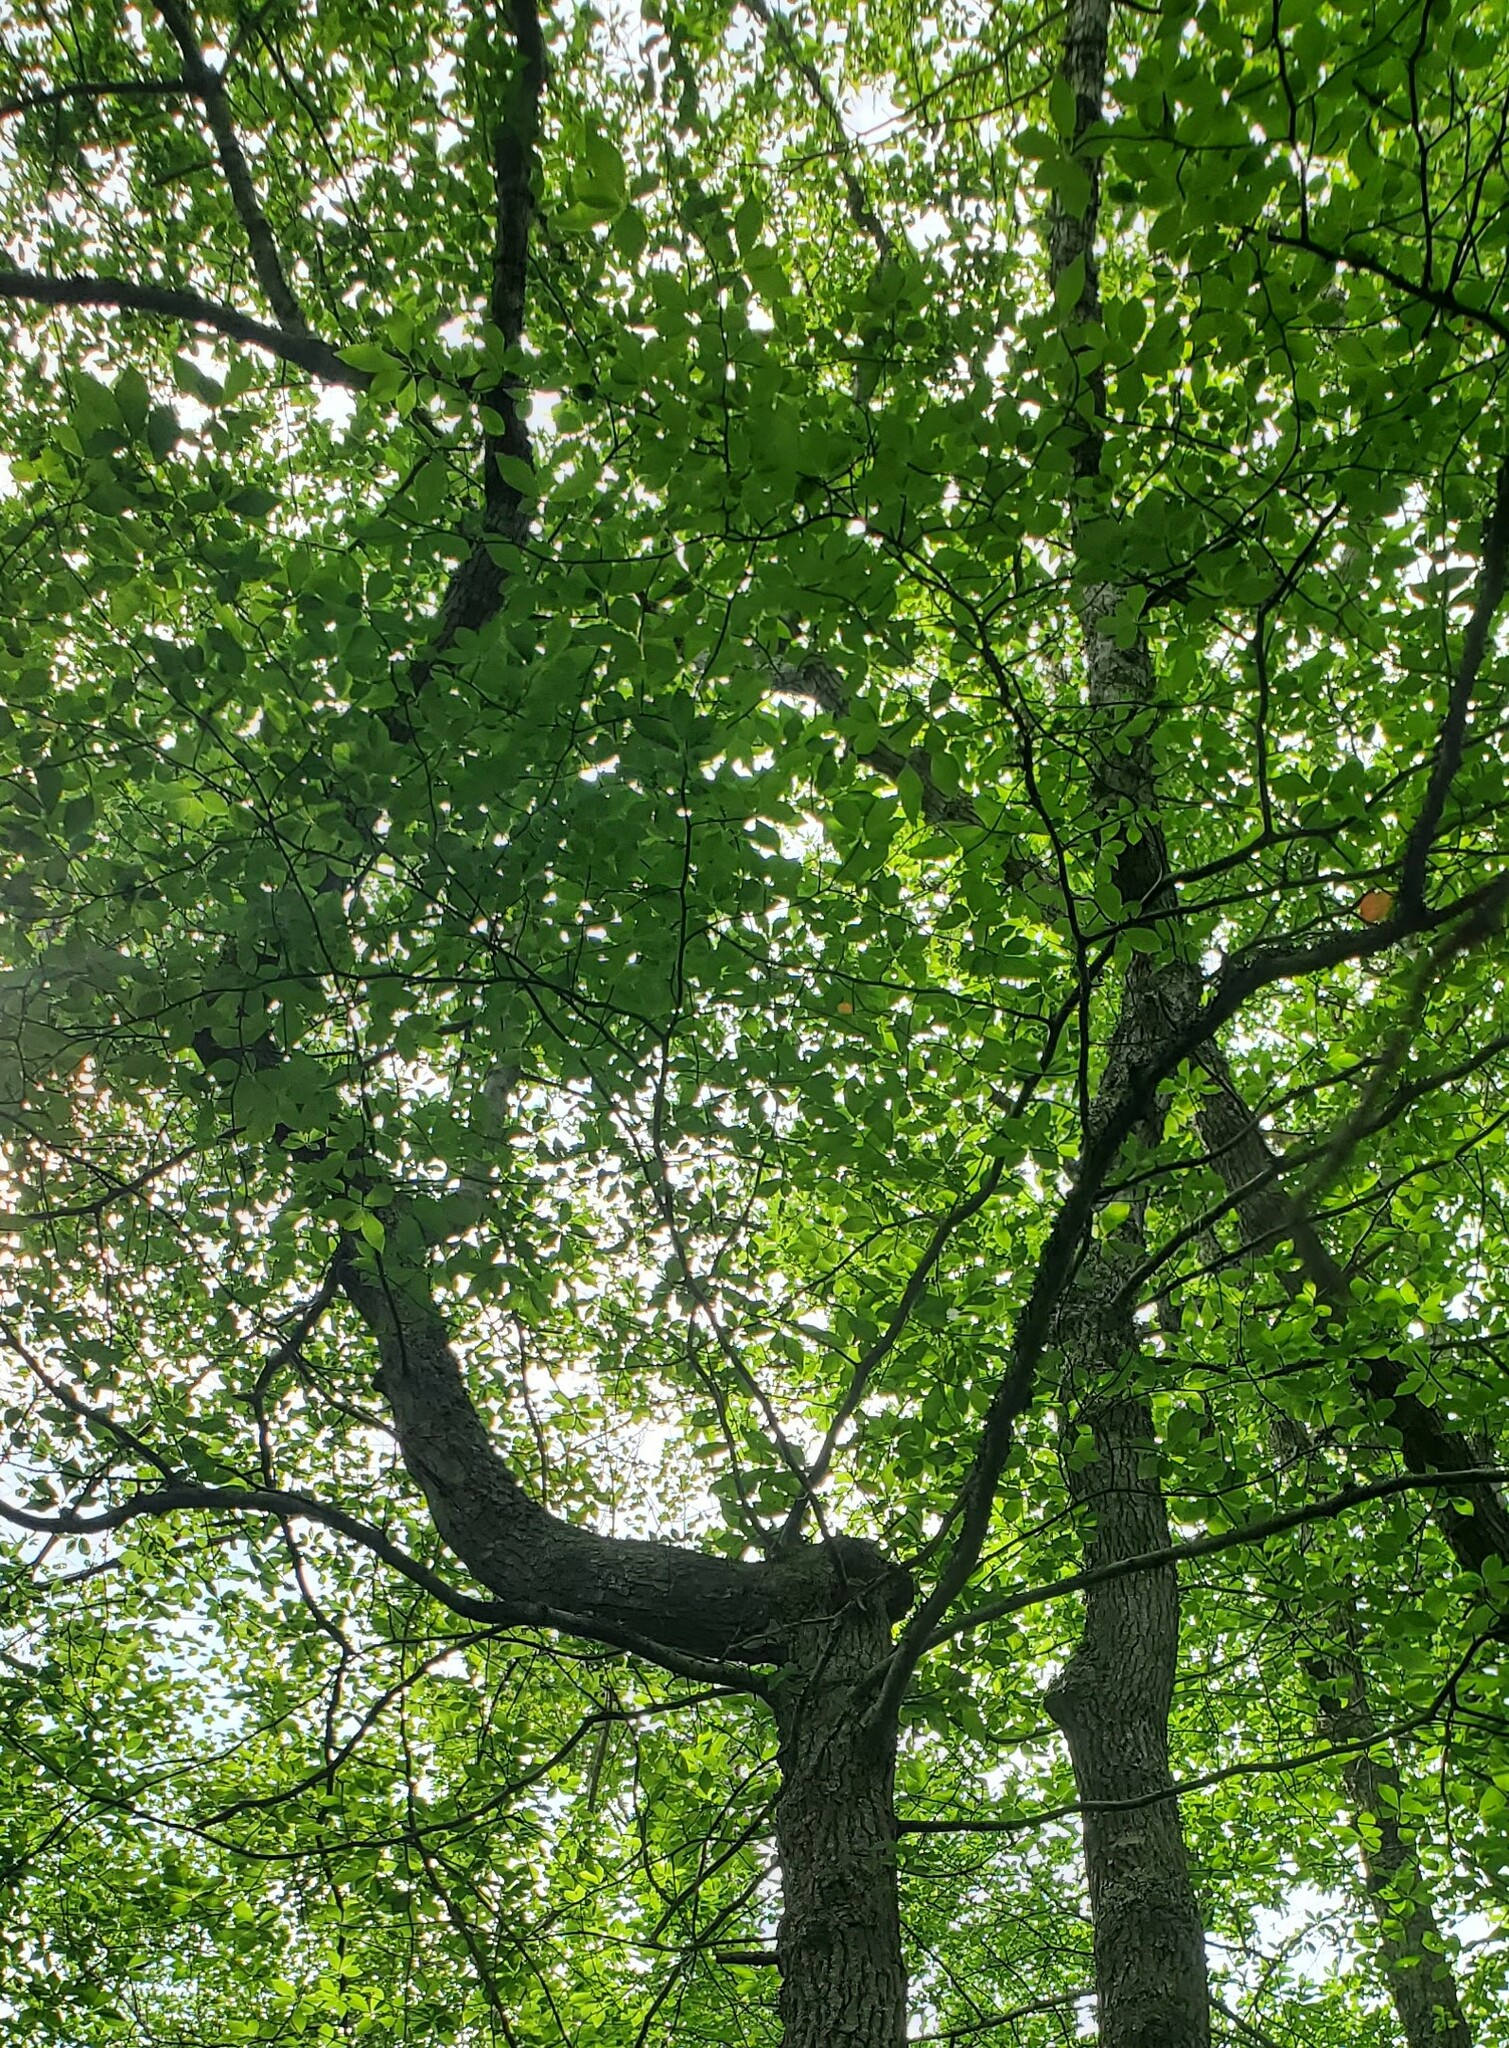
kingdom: Plantae
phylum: Tracheophyta
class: Magnoliopsida
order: Cornales
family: Nyssaceae
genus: Nyssa
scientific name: Nyssa sylvatica
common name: Black tupelo
